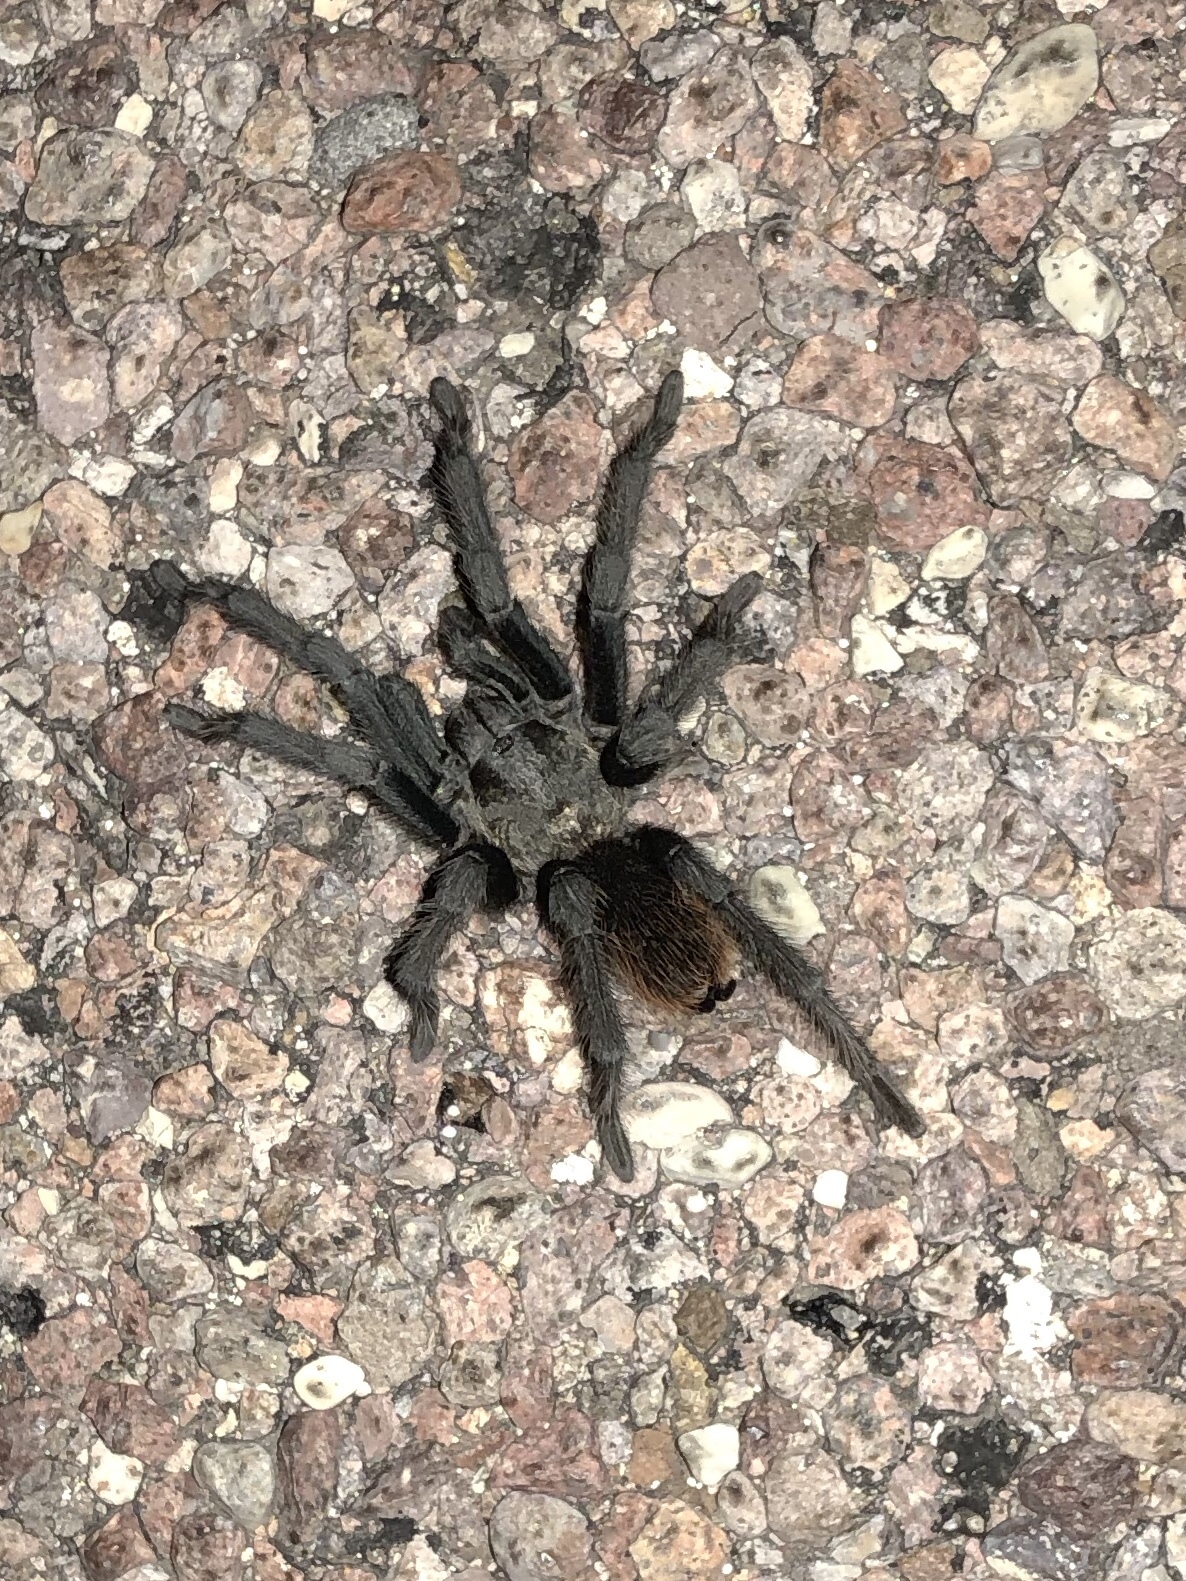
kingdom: Animalia
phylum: Arthropoda
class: Arachnida
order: Araneae
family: Theraphosidae
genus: Aphonopelma
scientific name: Aphonopelma vorhiesi
